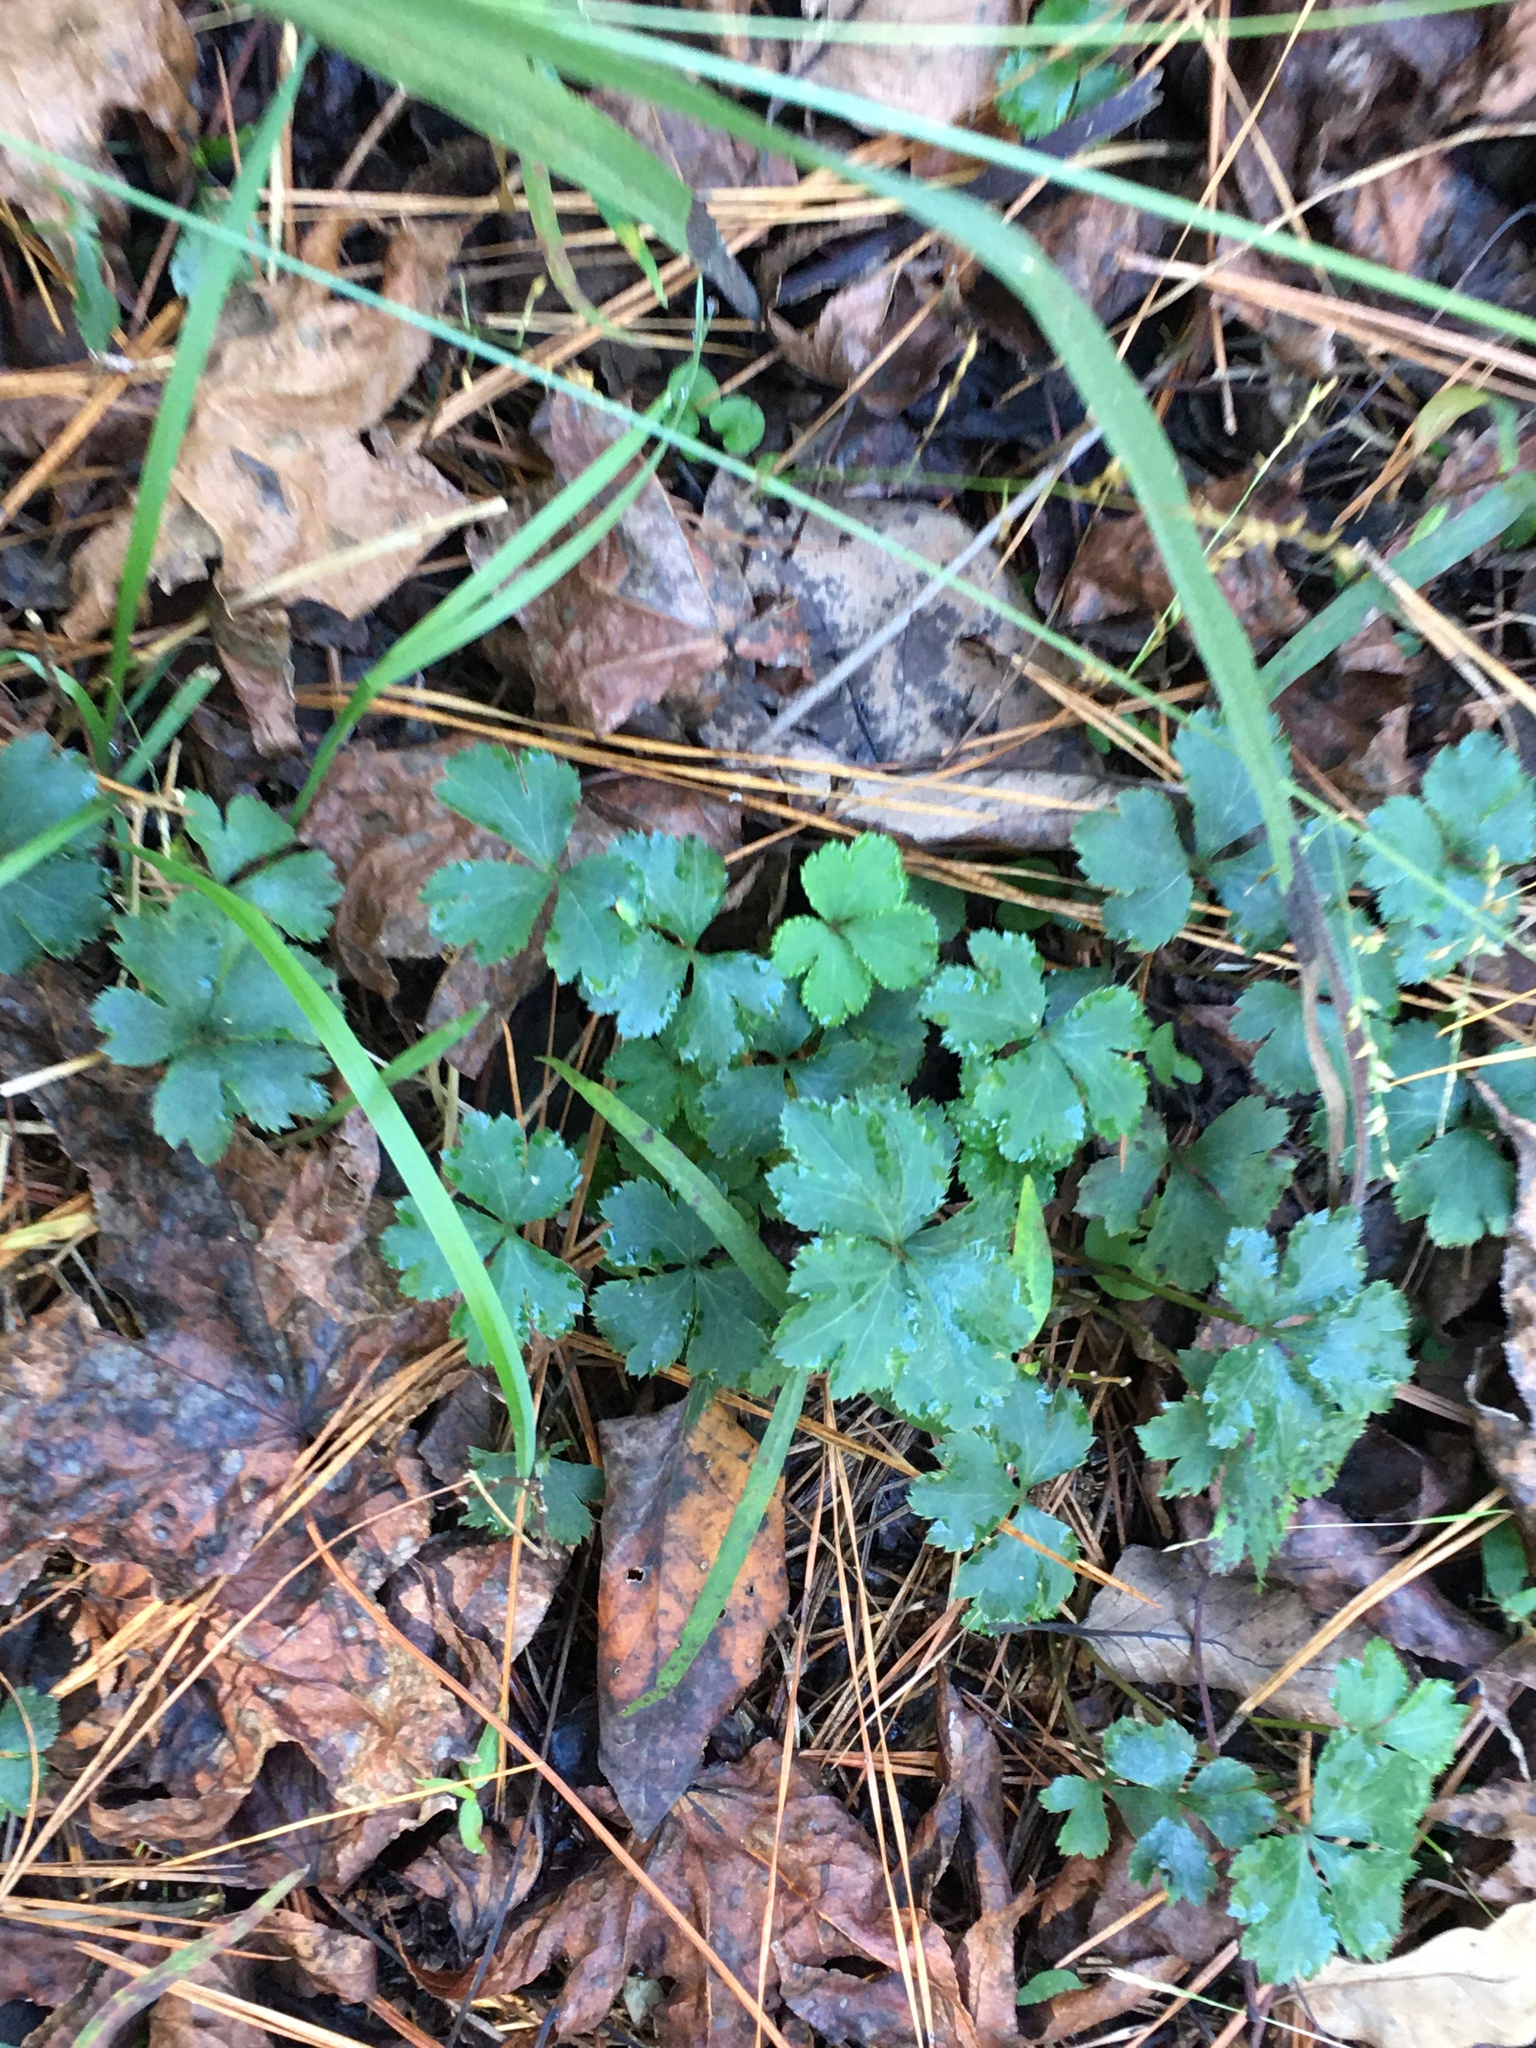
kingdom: Plantae
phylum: Tracheophyta
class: Magnoliopsida
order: Apiales
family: Apiaceae
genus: Sanicula
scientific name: Sanicula smallii
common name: Small's black snakeroot
